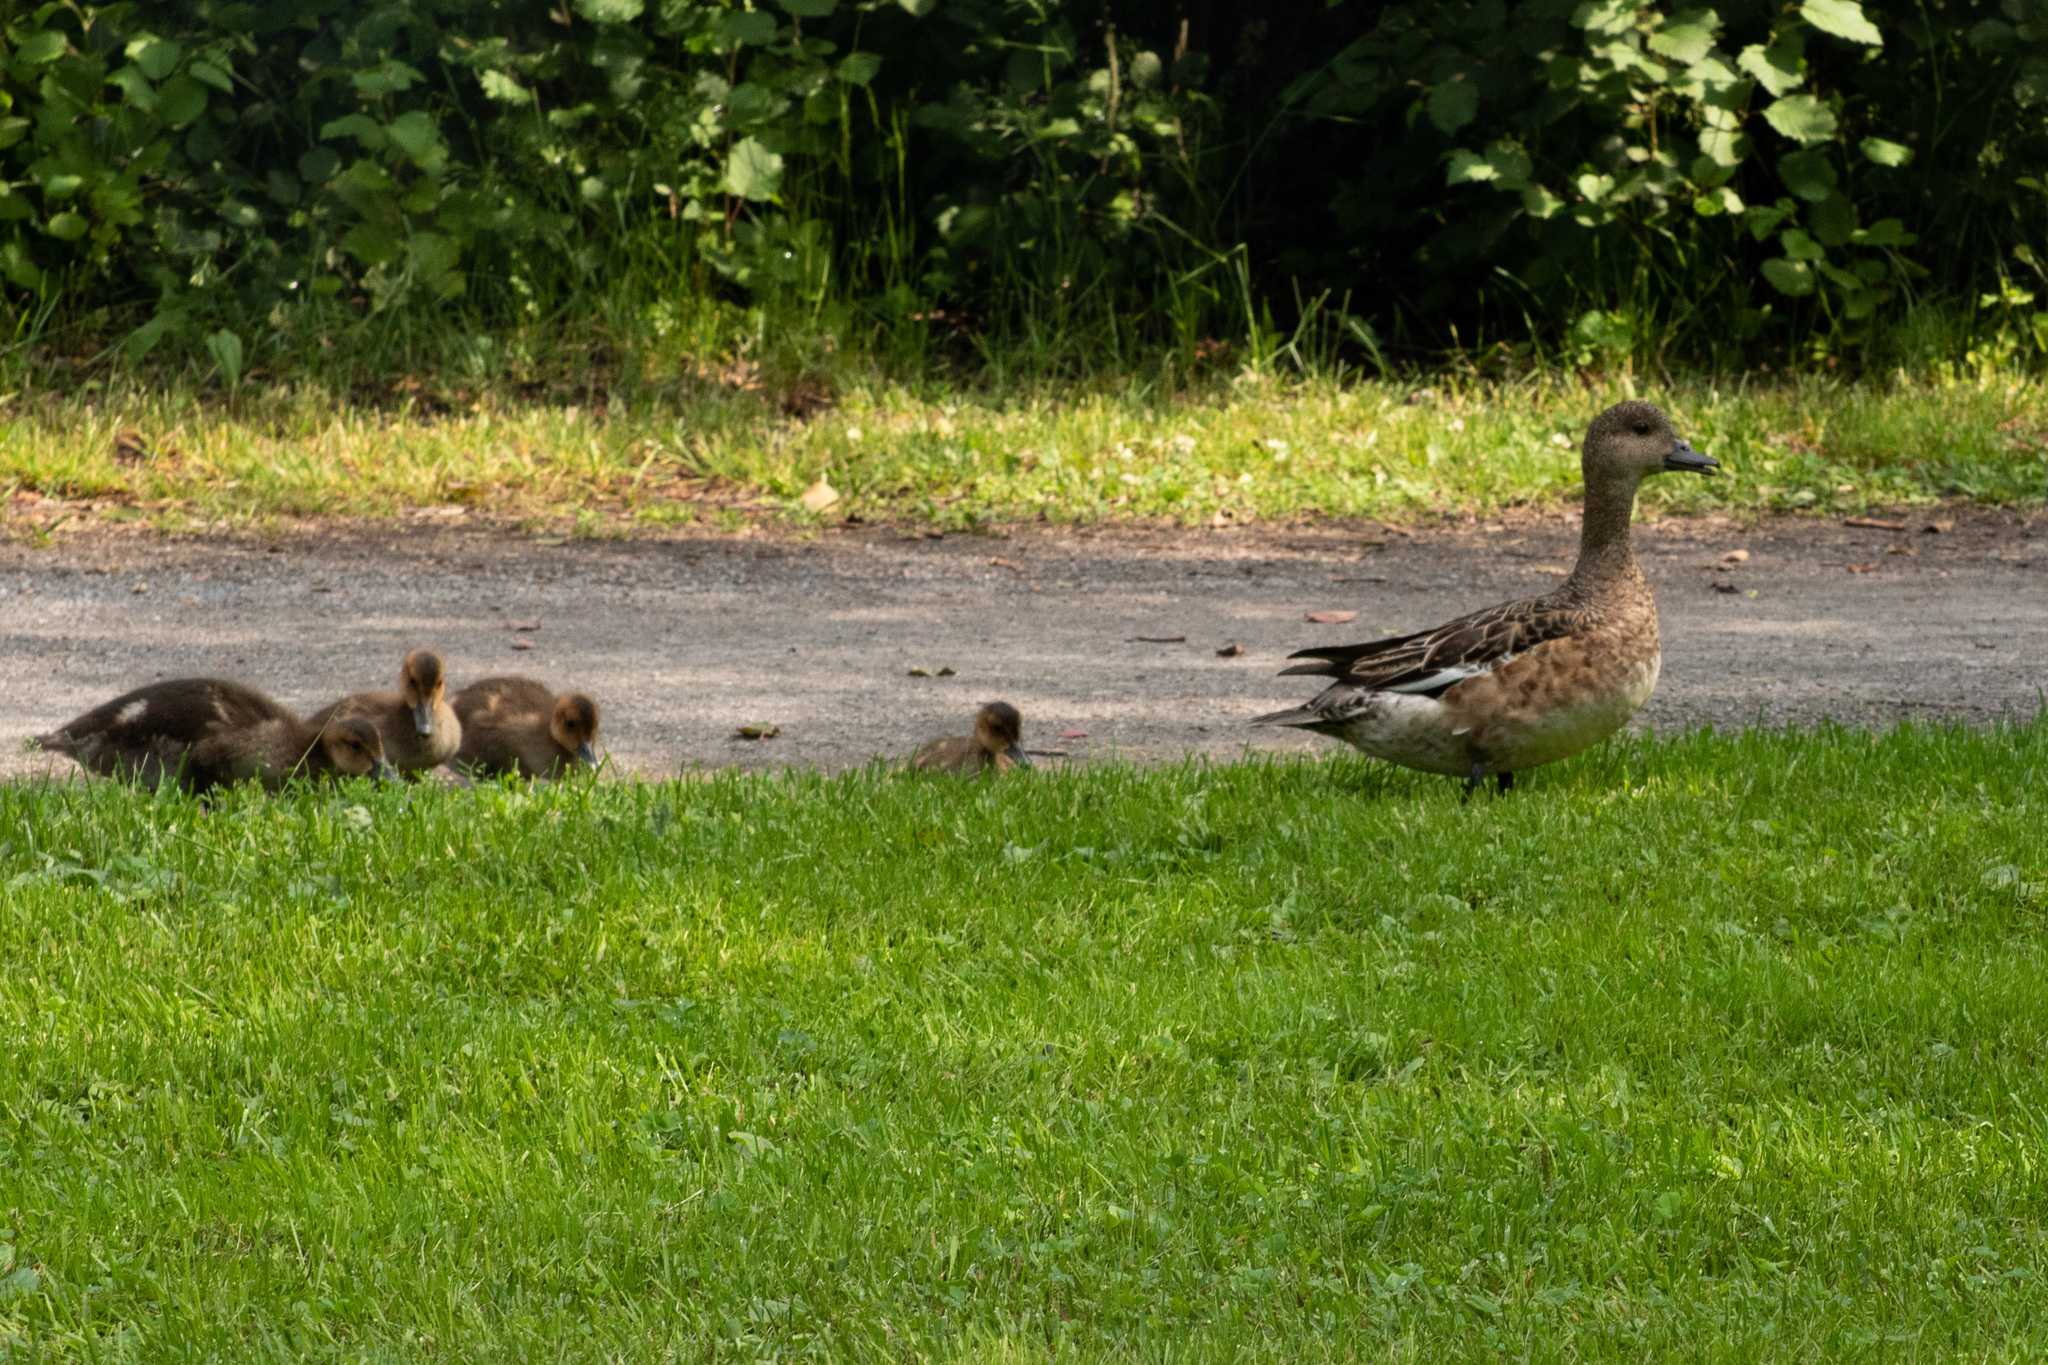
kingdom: Animalia
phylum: Chordata
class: Aves
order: Anseriformes
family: Anatidae
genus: Mareca
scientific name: Mareca penelope
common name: Eurasian wigeon
